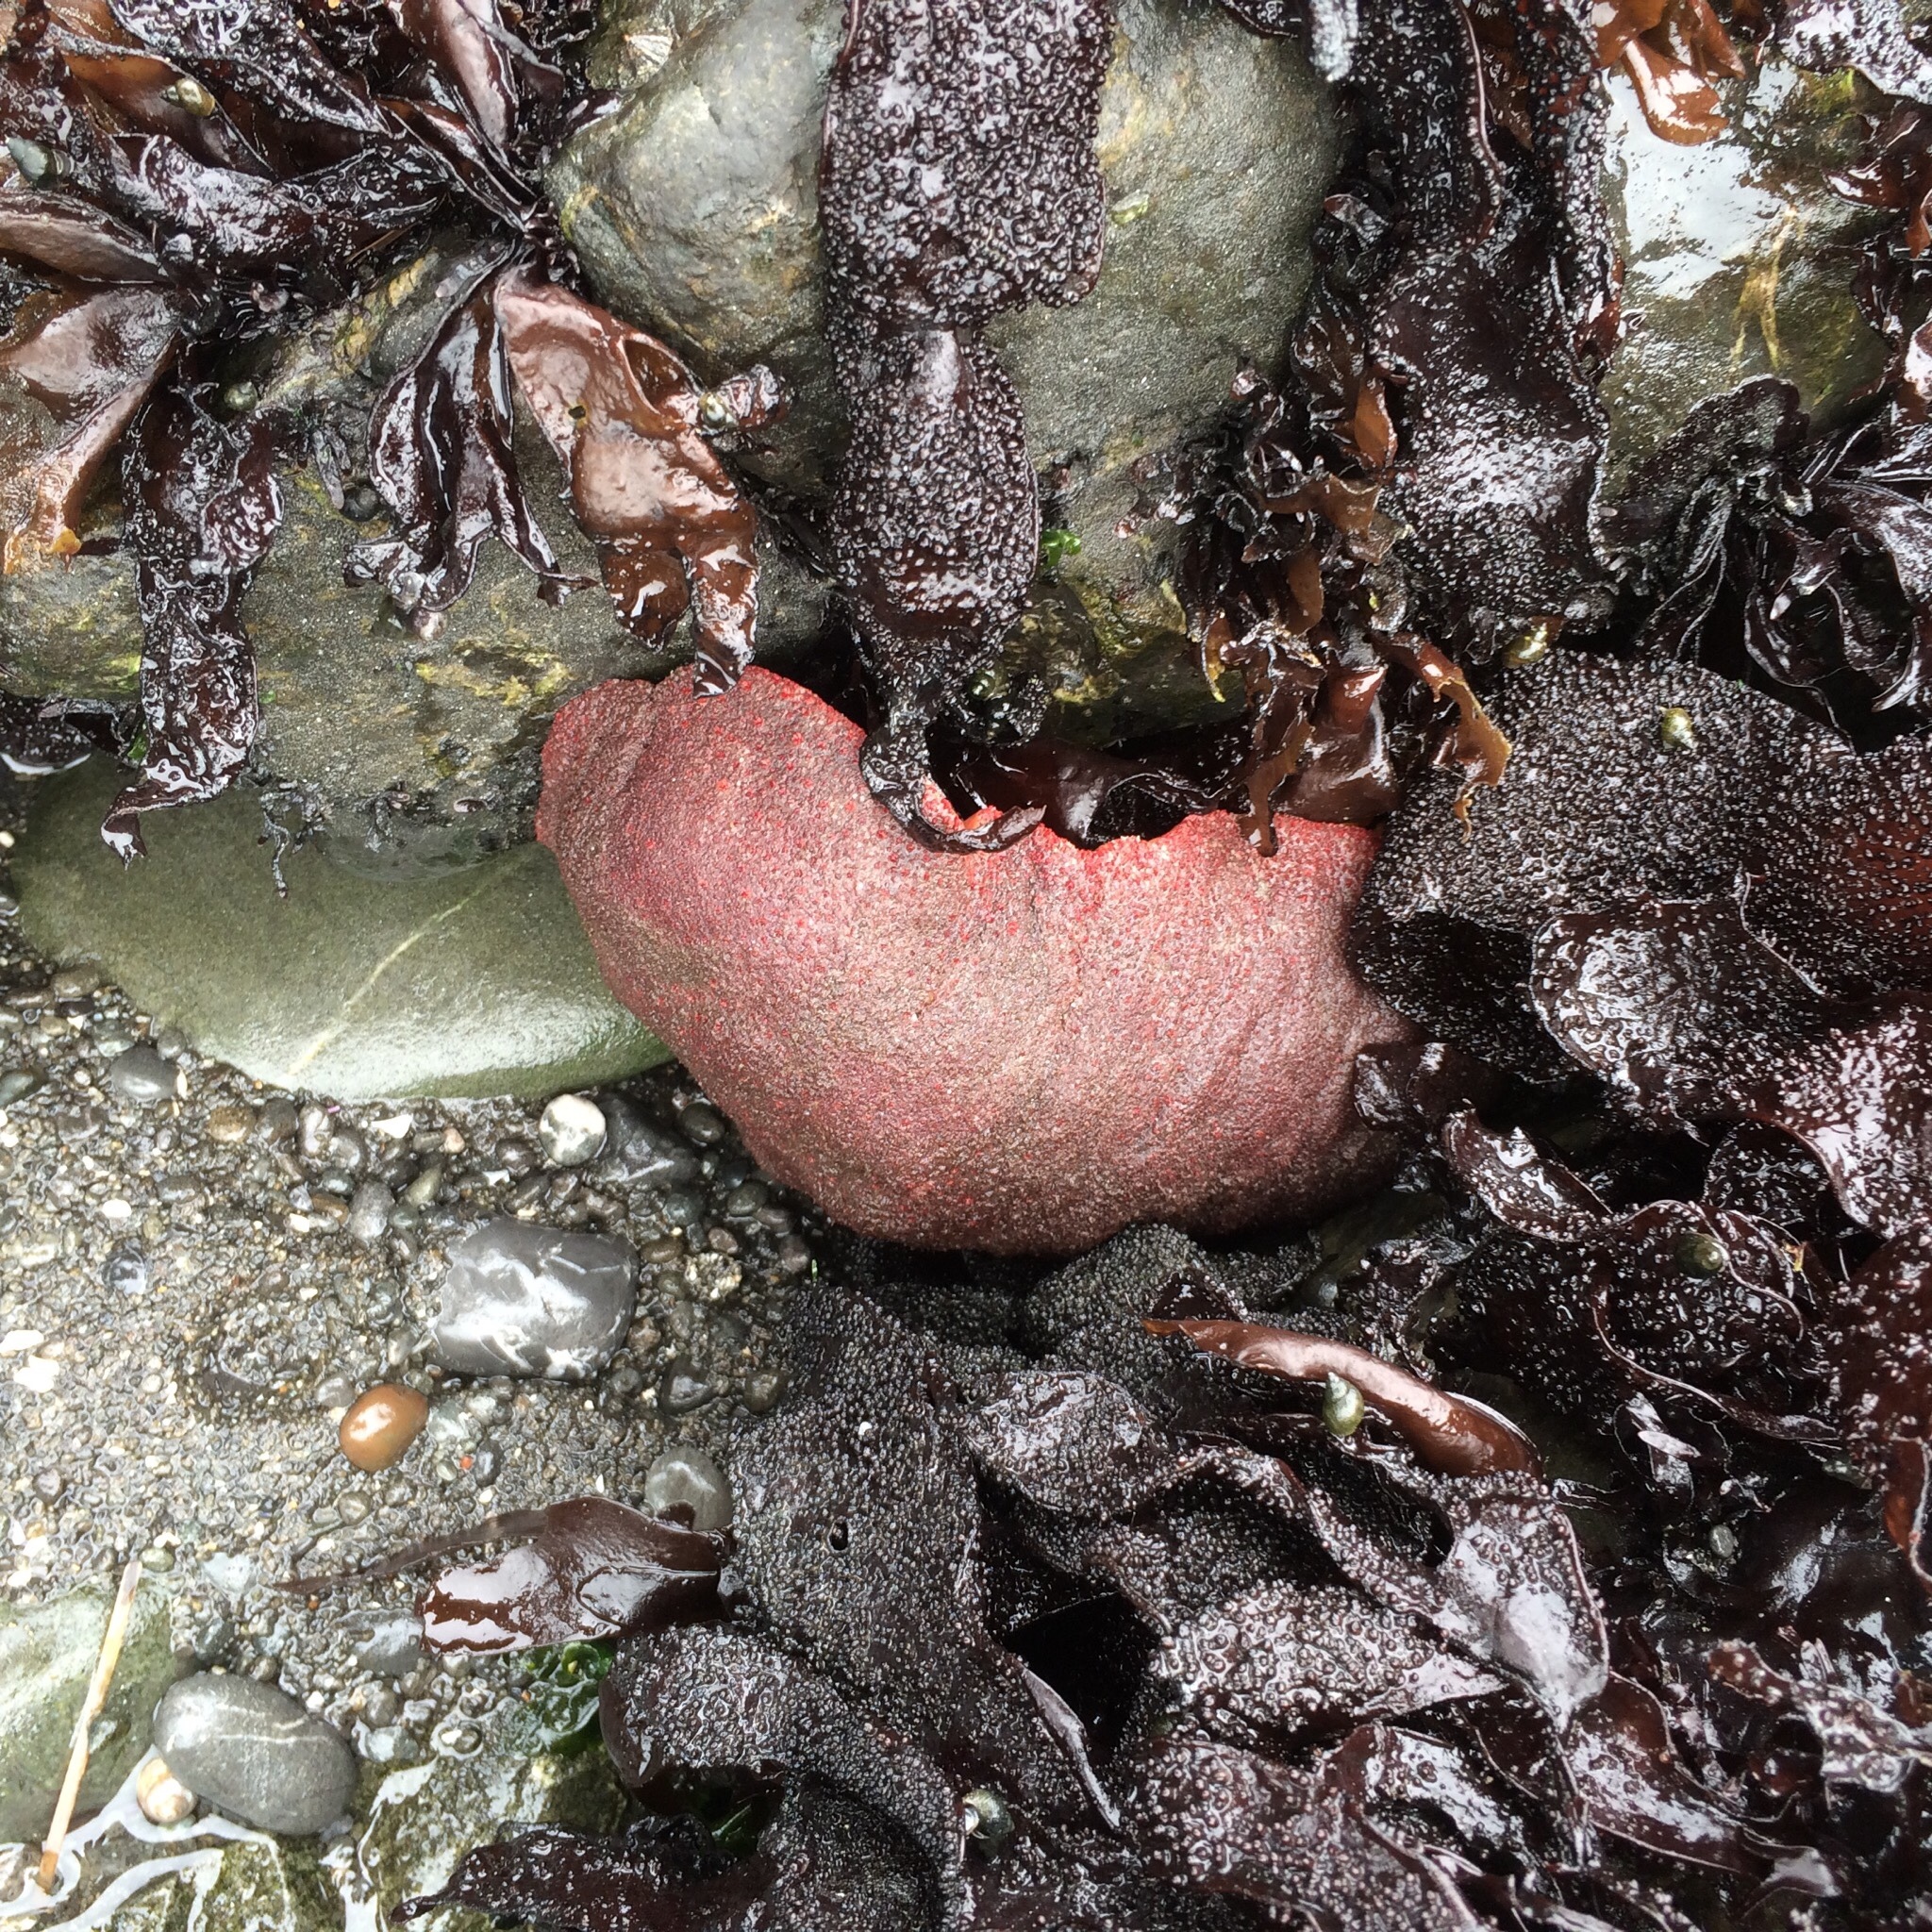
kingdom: Animalia
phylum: Mollusca
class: Polyplacophora
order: Chitonida
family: Acanthochitonidae
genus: Cryptochiton
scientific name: Cryptochiton stelleri
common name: Giant pacific chiton
